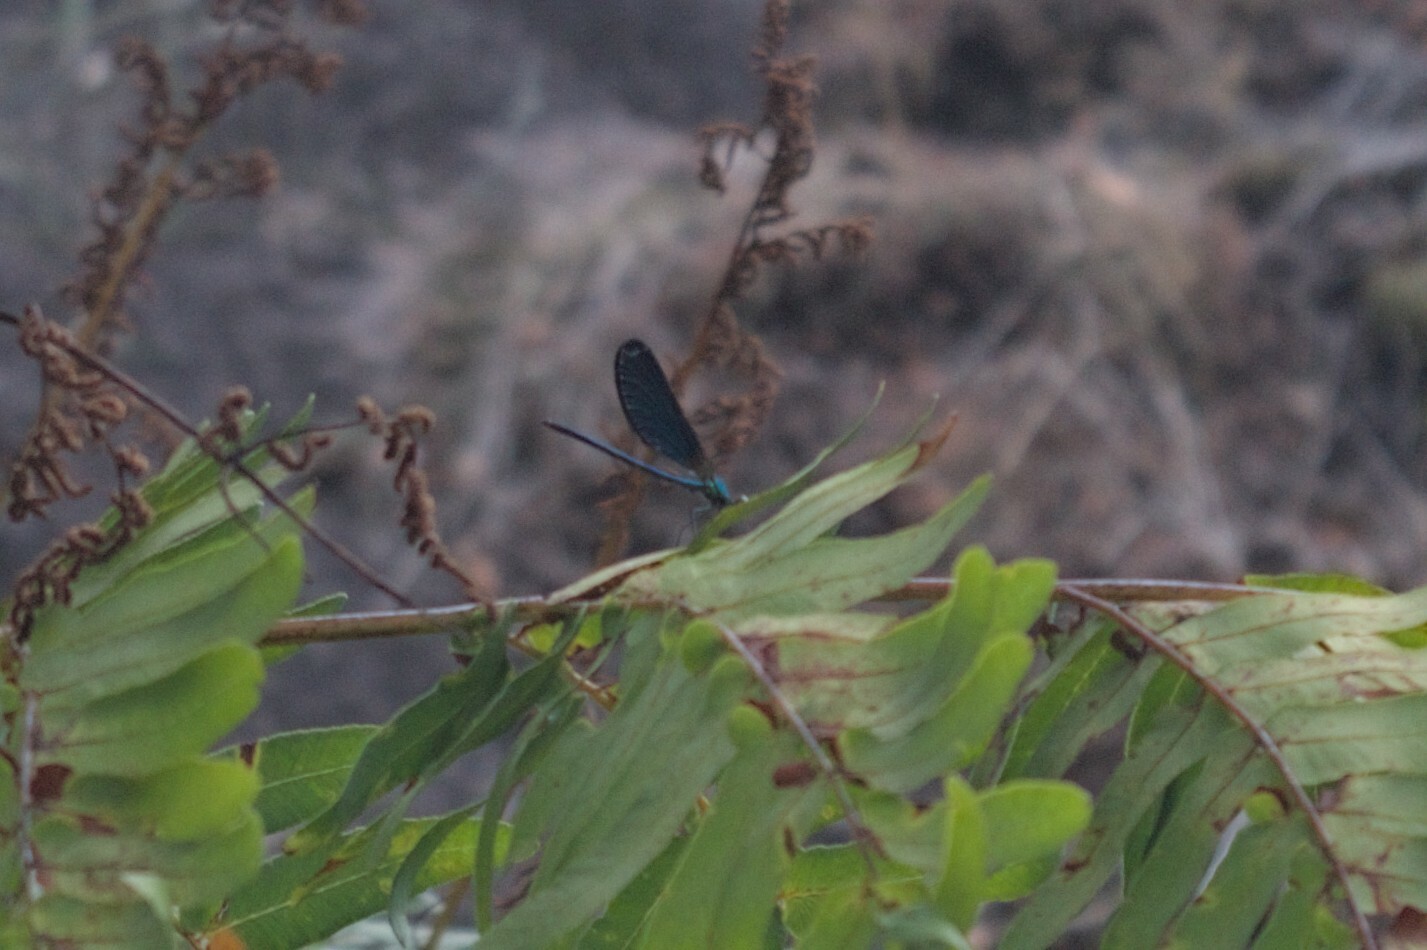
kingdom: Animalia
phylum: Arthropoda
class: Insecta
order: Odonata
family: Calopterygidae
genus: Calopteryx
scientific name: Calopteryx virgo
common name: Beautiful demoiselle
